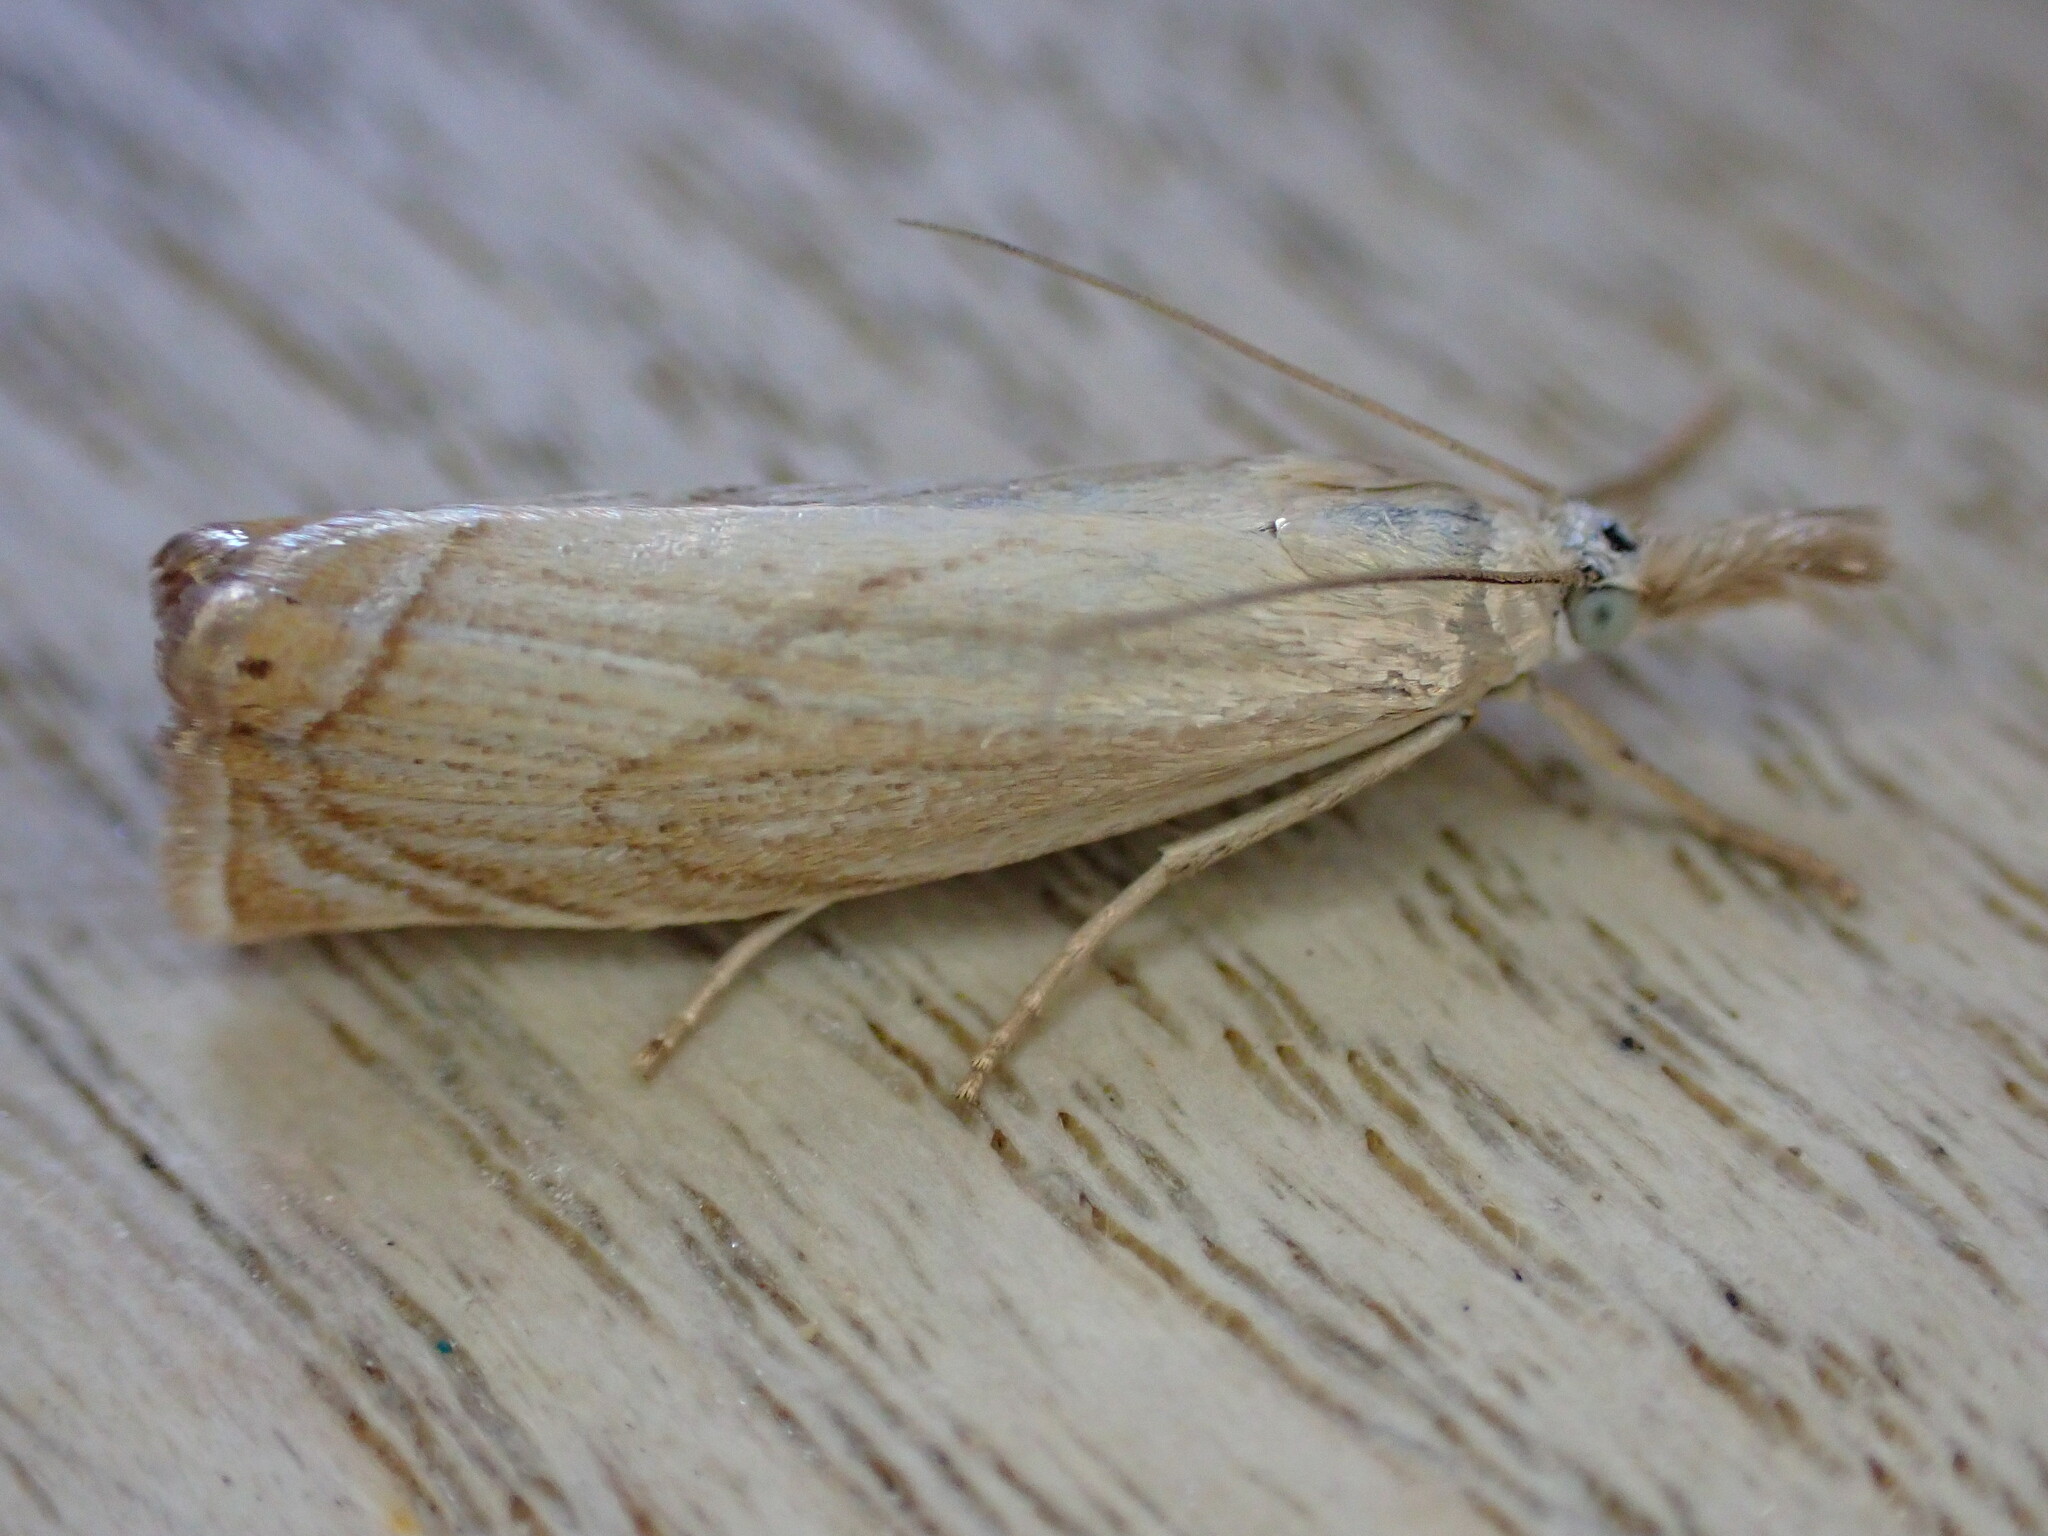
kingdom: Animalia
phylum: Arthropoda
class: Insecta
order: Lepidoptera
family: Crambidae
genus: Chrysoteuchia
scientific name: Chrysoteuchia culmella
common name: Garden grass-veneer
